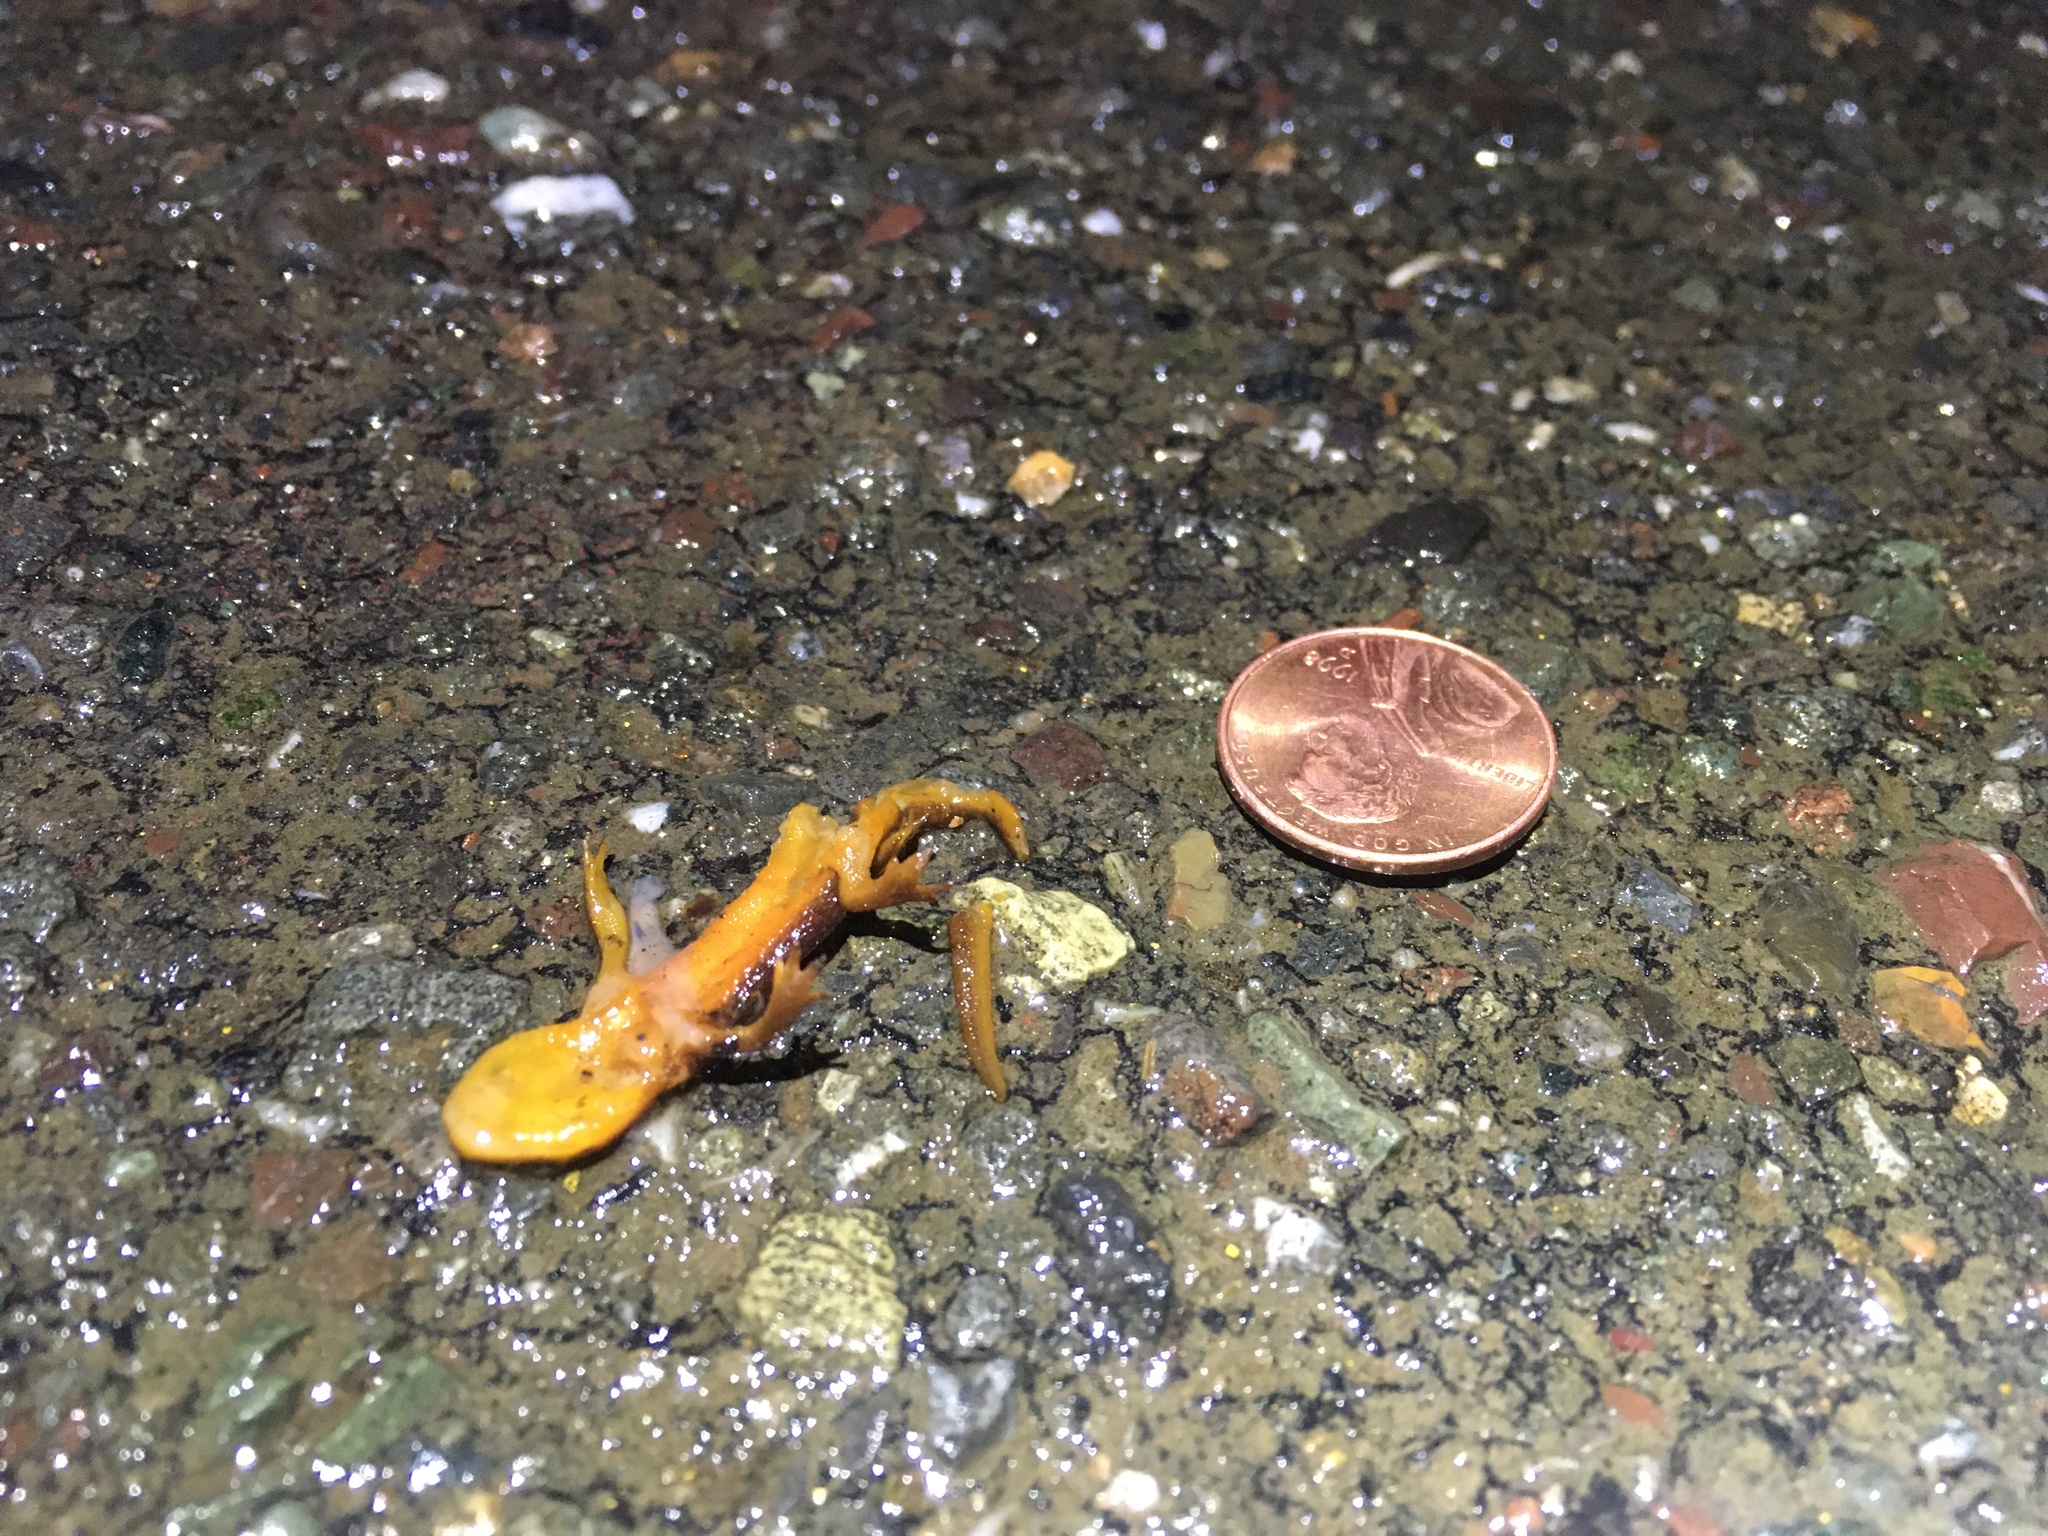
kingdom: Animalia
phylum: Chordata
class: Amphibia
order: Caudata
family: Salamandridae
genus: Taricha
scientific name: Taricha
